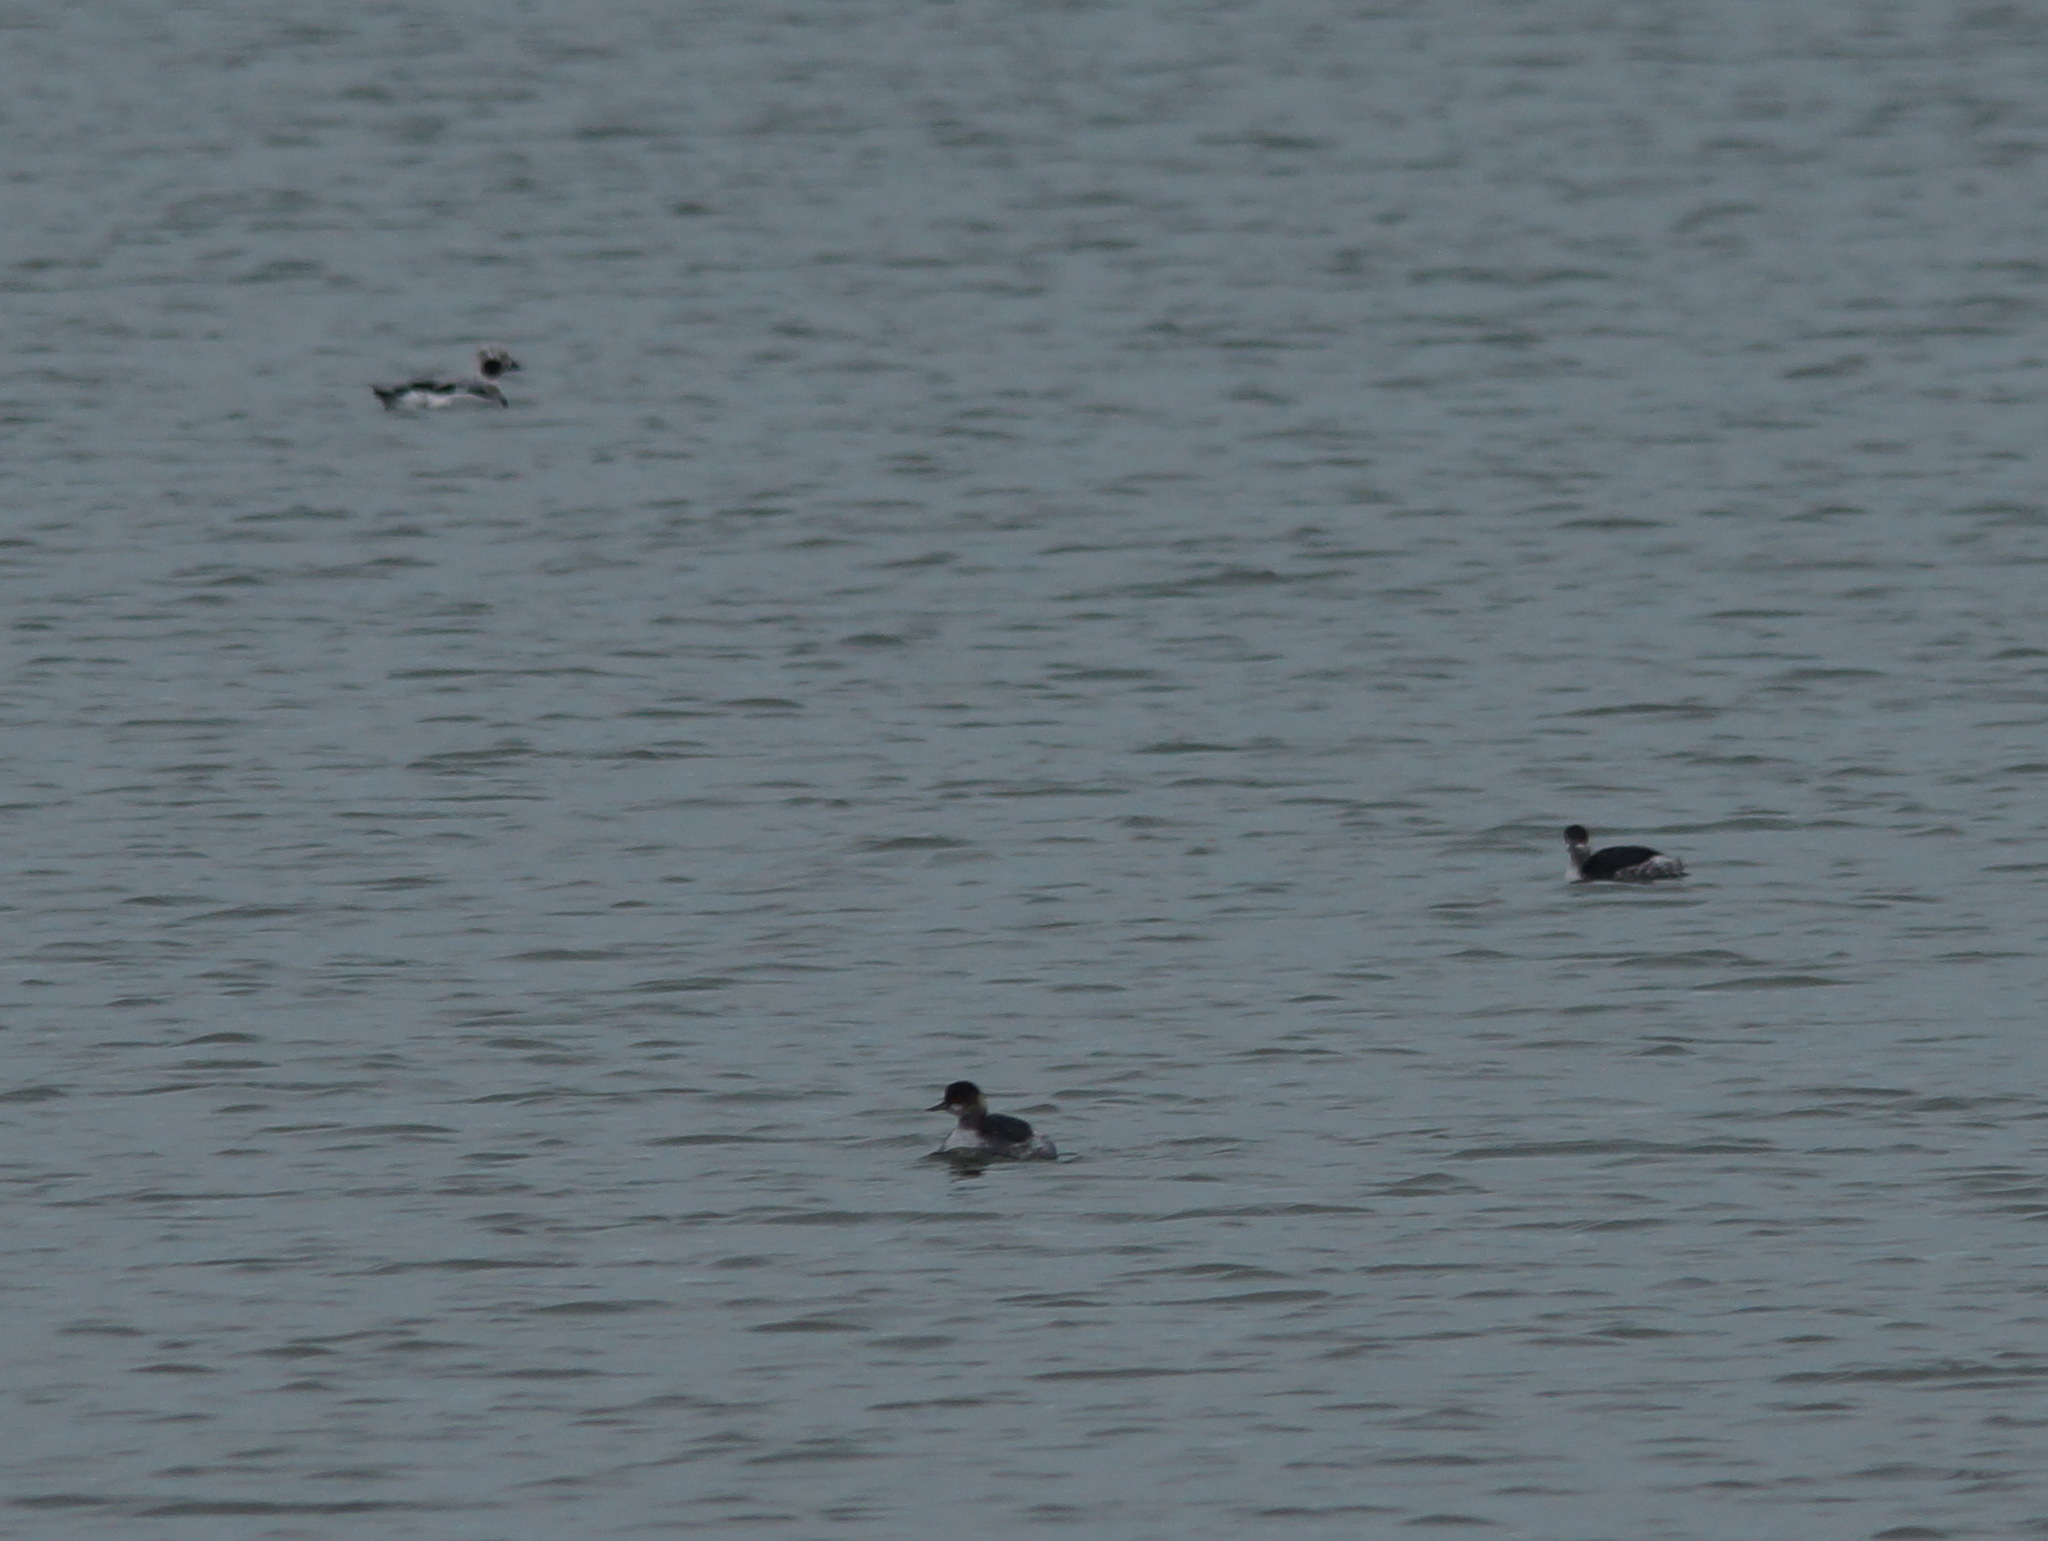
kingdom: Animalia
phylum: Chordata
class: Aves
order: Anseriformes
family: Anatidae
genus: Clangula
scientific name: Clangula hyemalis
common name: Long-tailed duck
